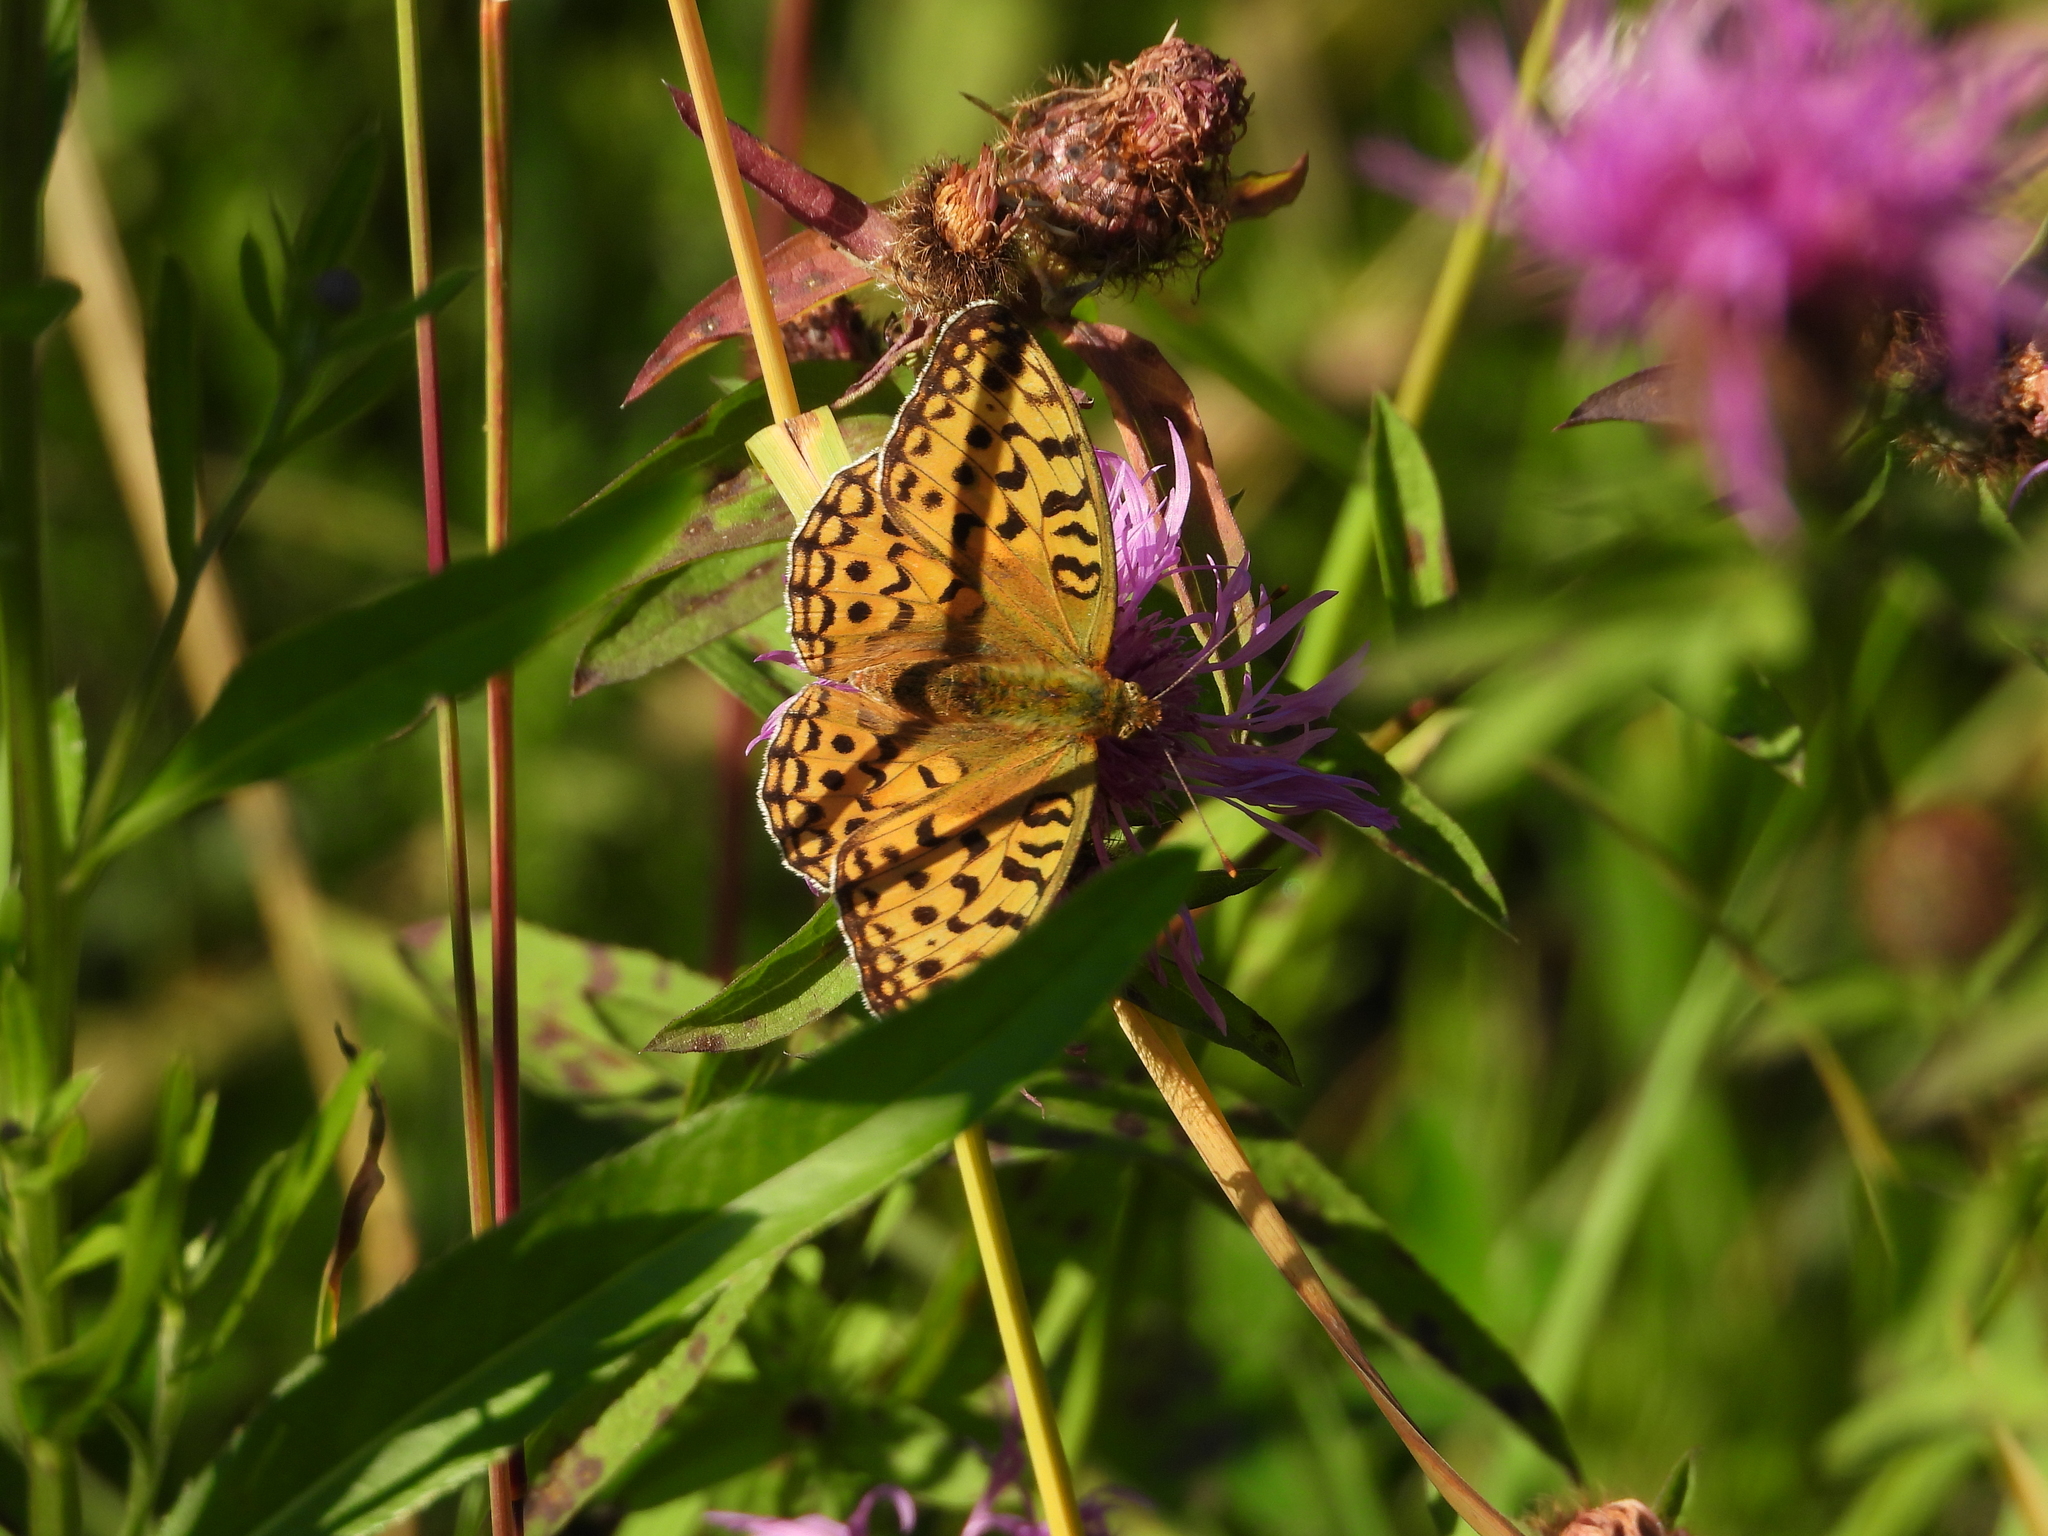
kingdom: Animalia
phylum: Arthropoda
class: Insecta
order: Lepidoptera
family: Nymphalidae
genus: Fabriciana
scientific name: Fabriciana adippe
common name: High brown fritillary
